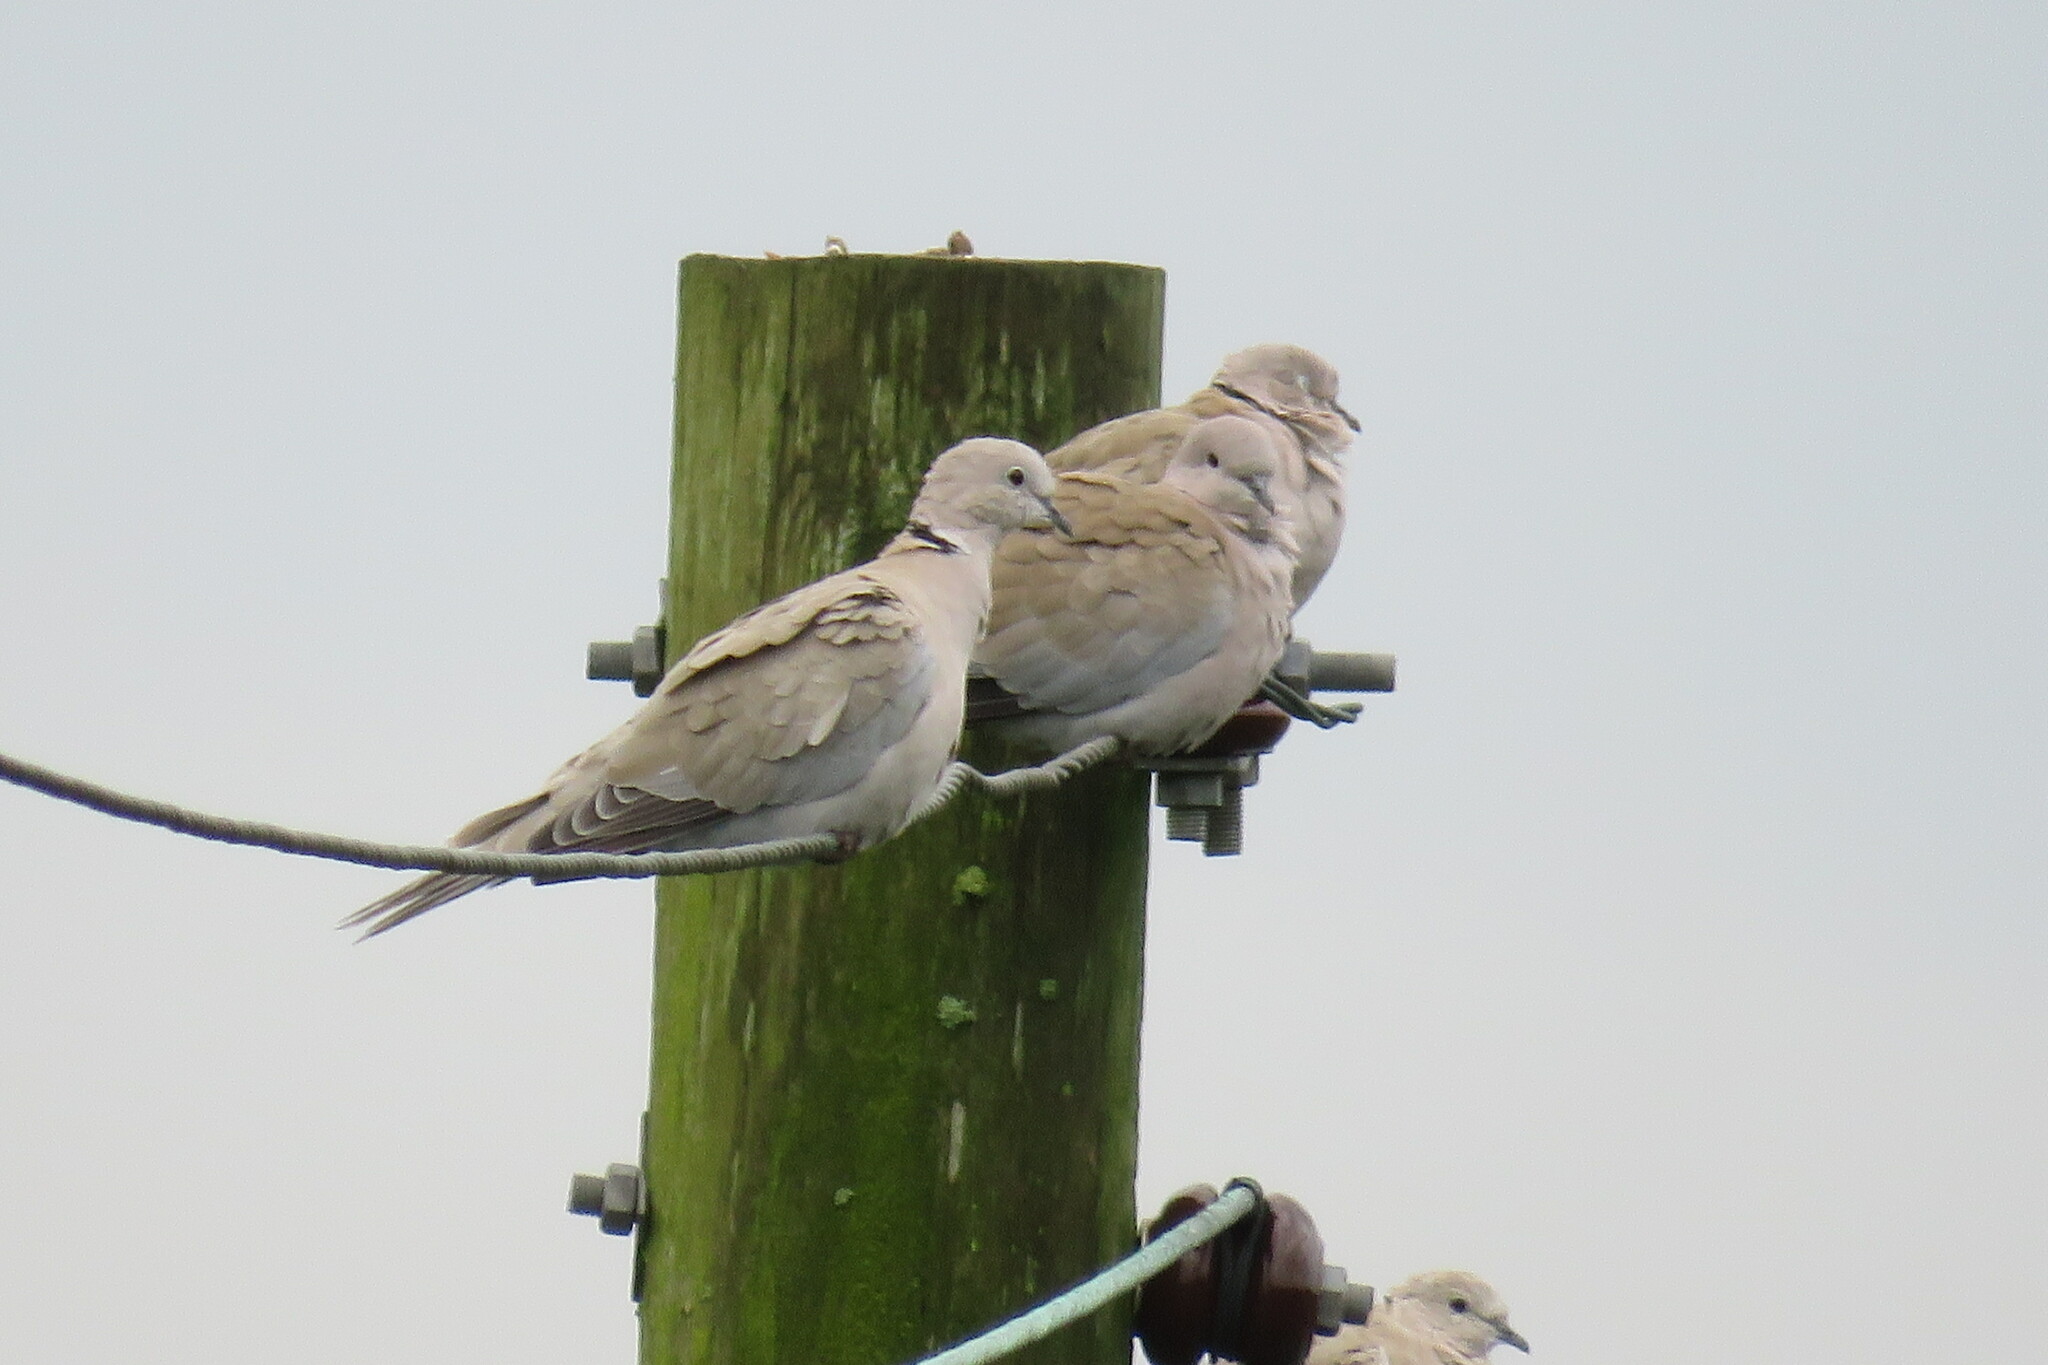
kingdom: Animalia
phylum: Chordata
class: Aves
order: Columbiformes
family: Columbidae
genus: Streptopelia
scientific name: Streptopelia decaocto
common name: Eurasian collared dove
